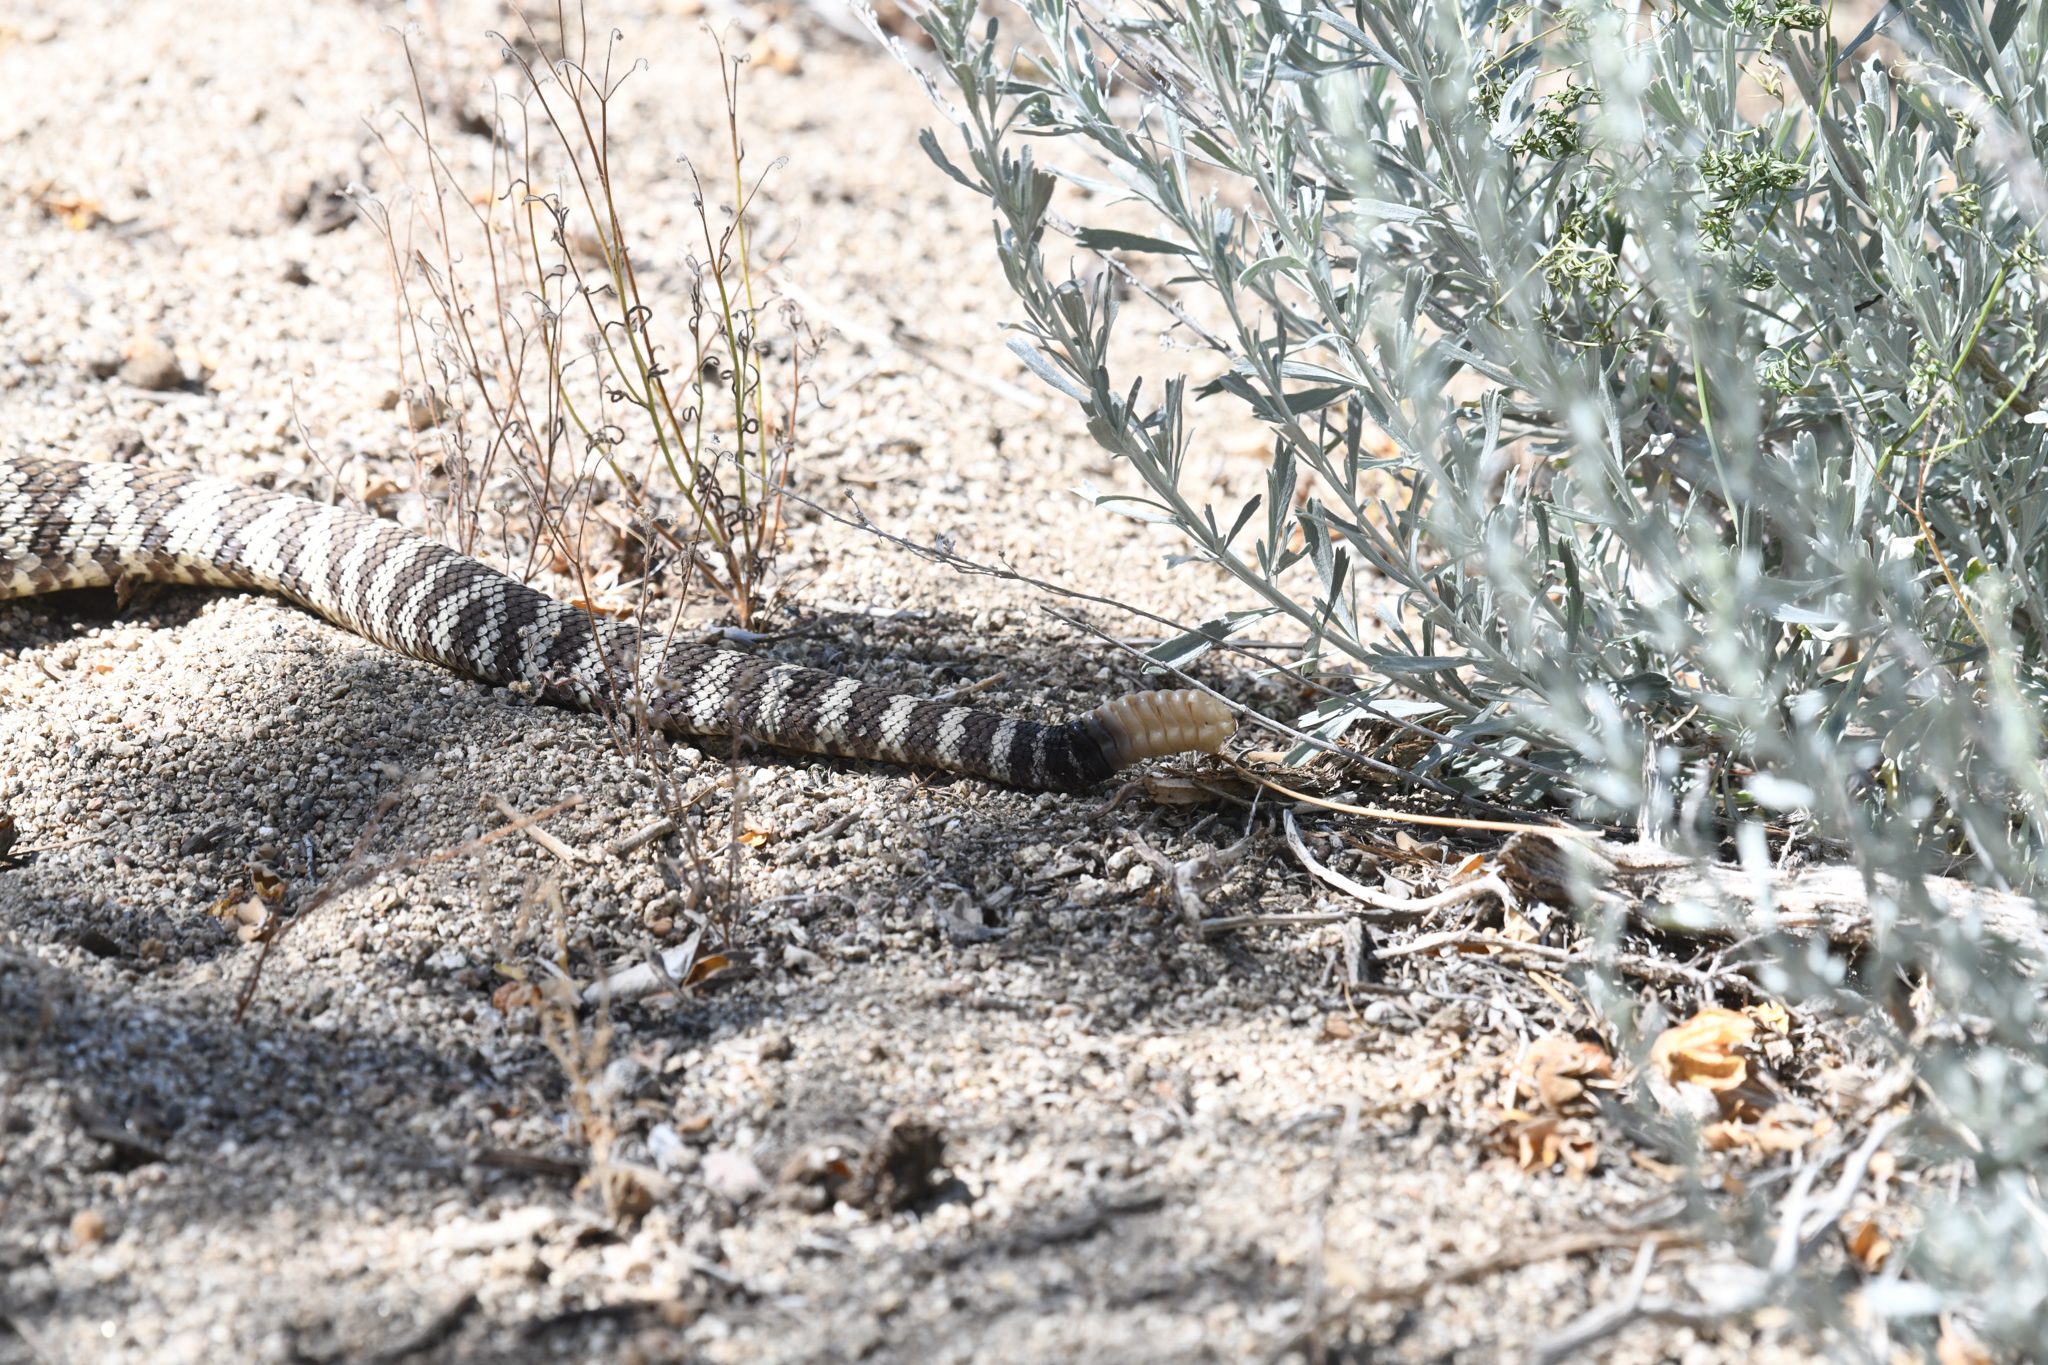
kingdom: Animalia
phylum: Chordata
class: Squamata
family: Viperidae
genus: Crotalus
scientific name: Crotalus oreganus
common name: Abyssus
